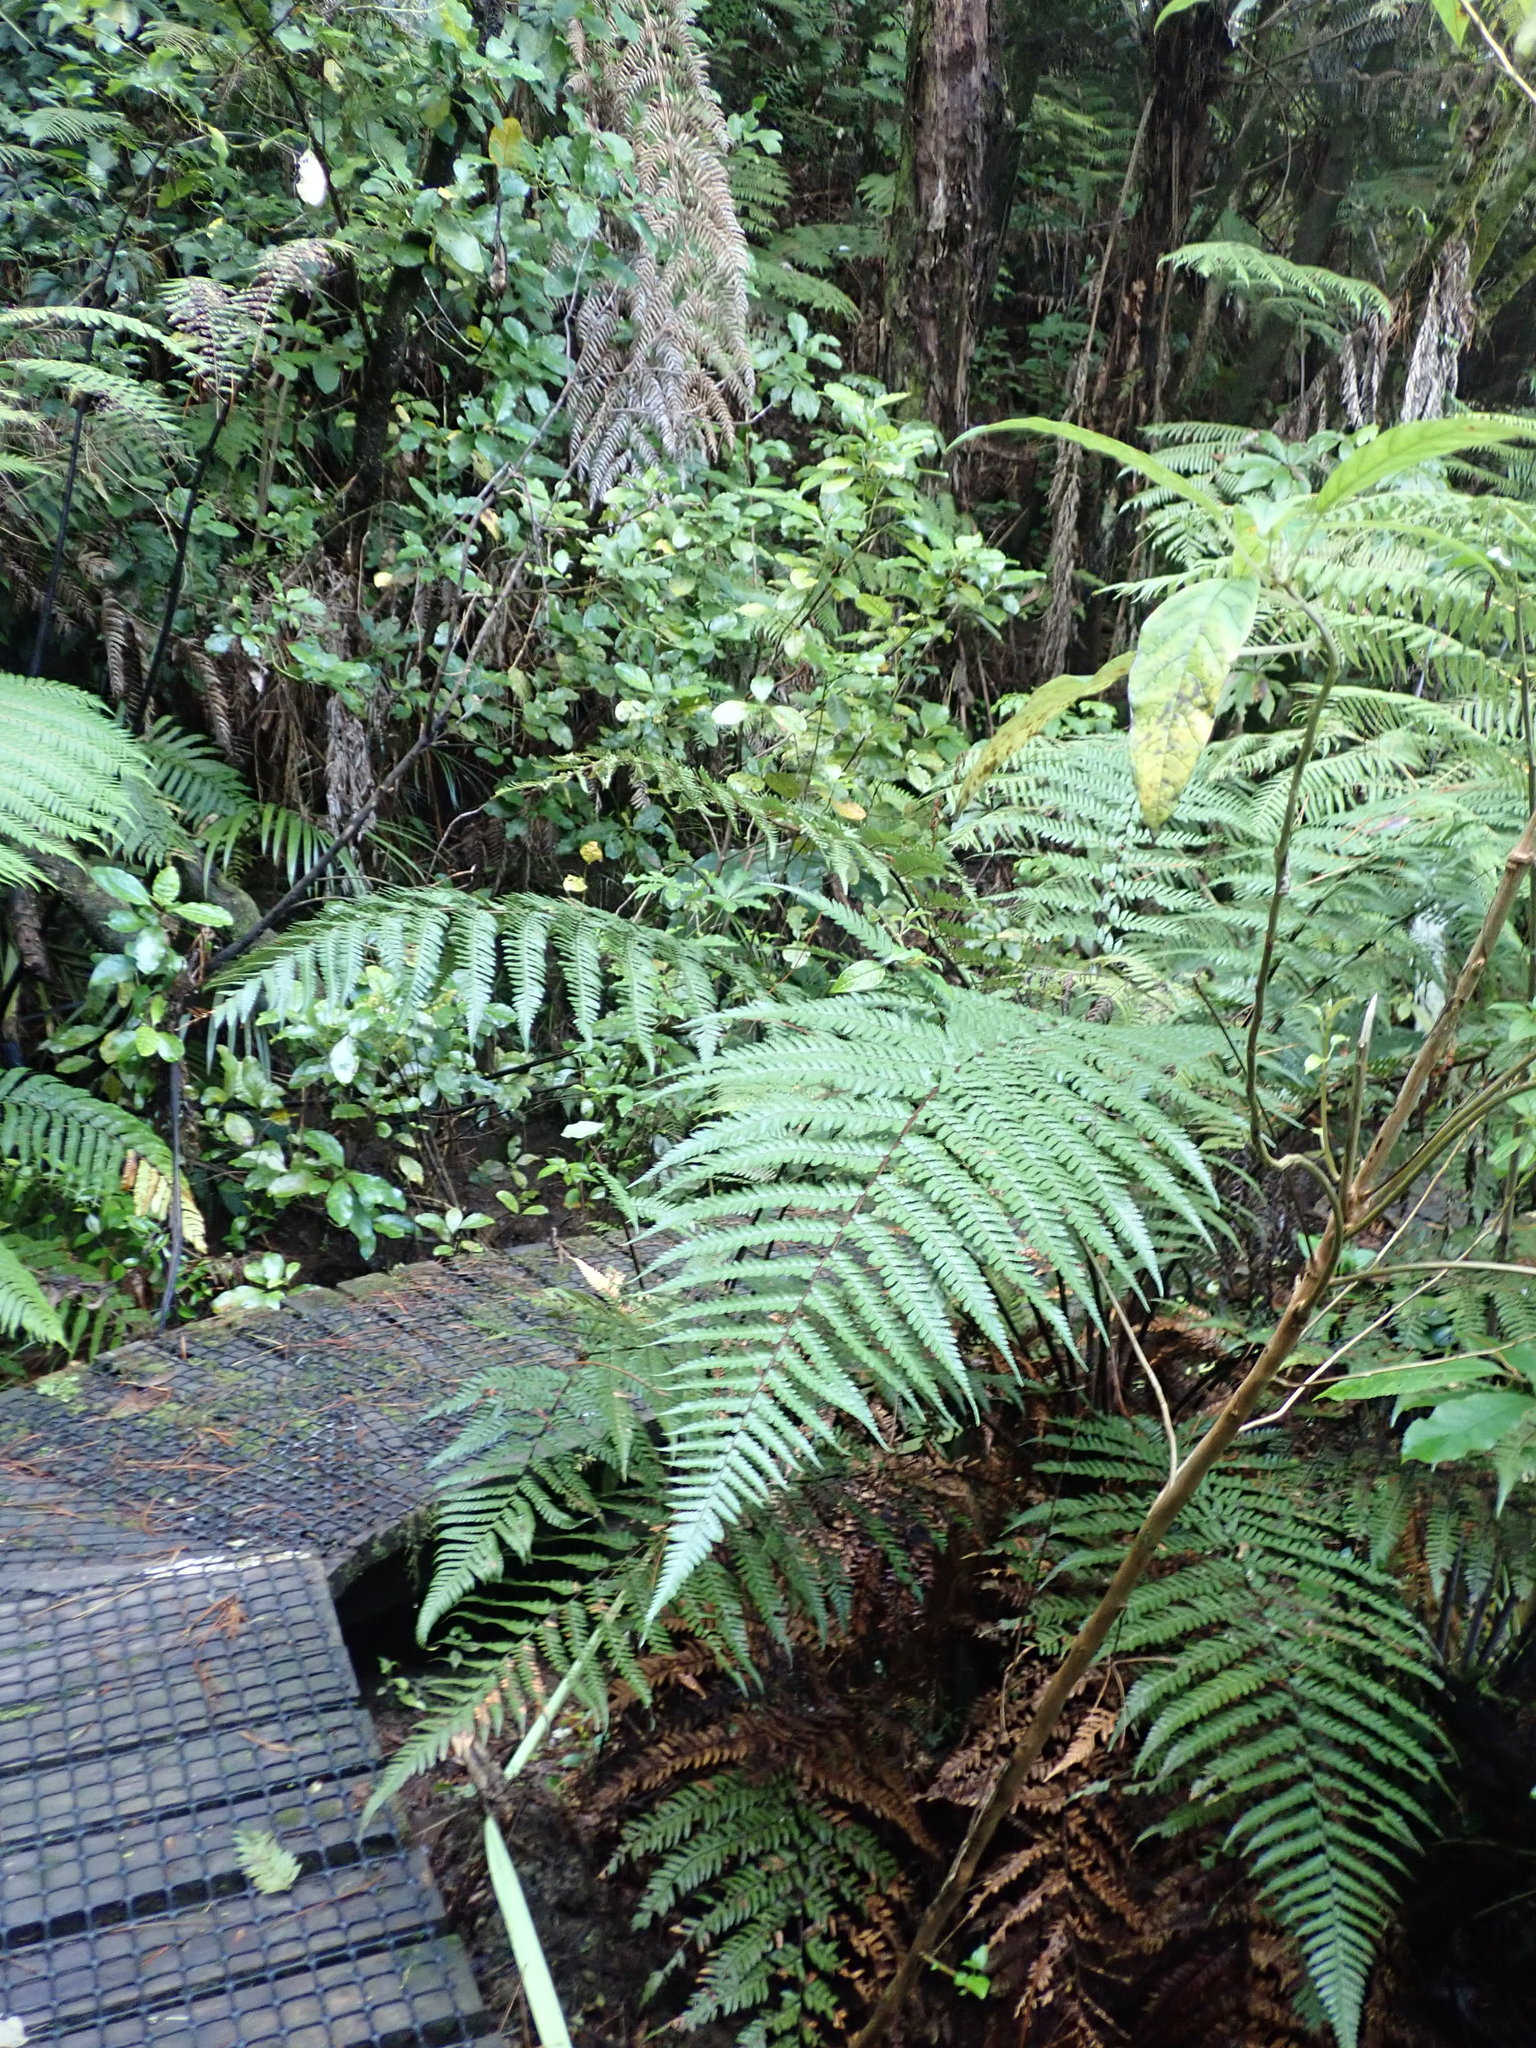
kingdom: Plantae
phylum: Tracheophyta
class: Magnoliopsida
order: Myrtales
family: Onagraceae
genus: Fuchsia
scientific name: Fuchsia excorticata
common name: Tree fuchsia
